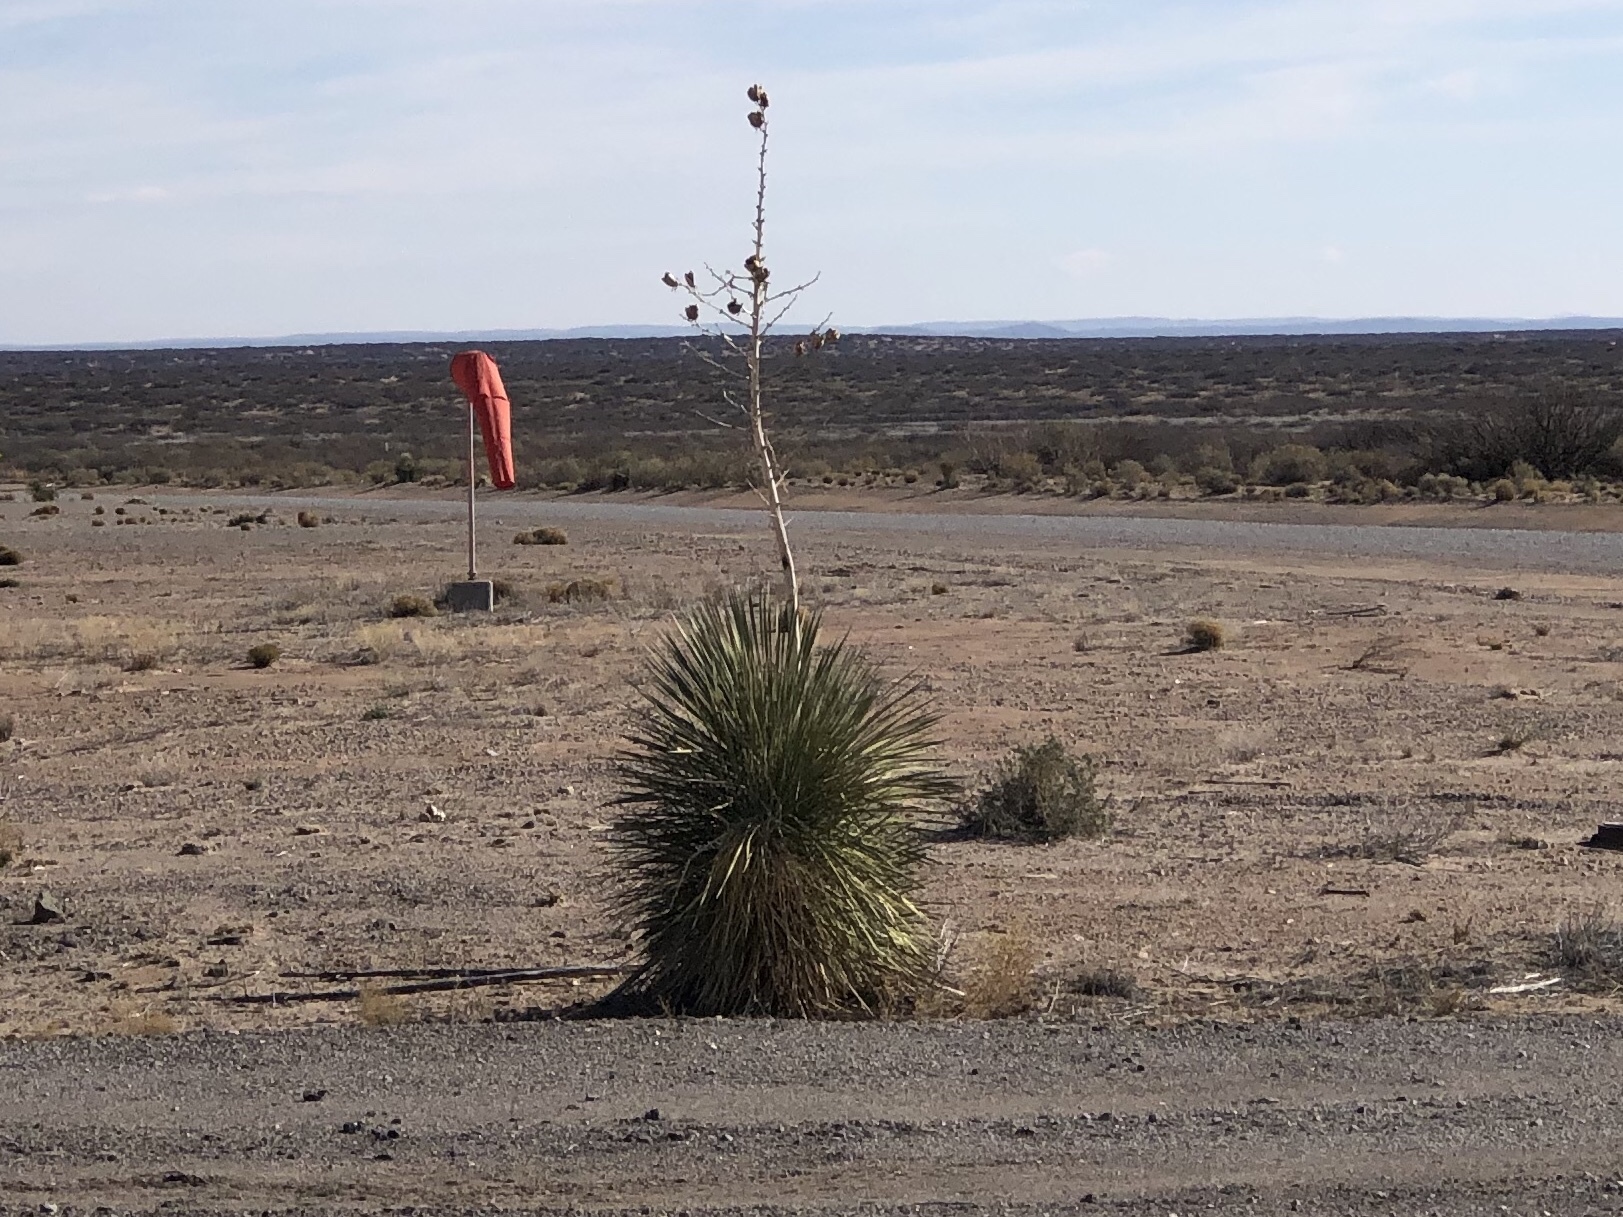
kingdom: Plantae
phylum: Tracheophyta
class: Liliopsida
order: Asparagales
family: Asparagaceae
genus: Yucca
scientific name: Yucca elata
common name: Palmella
